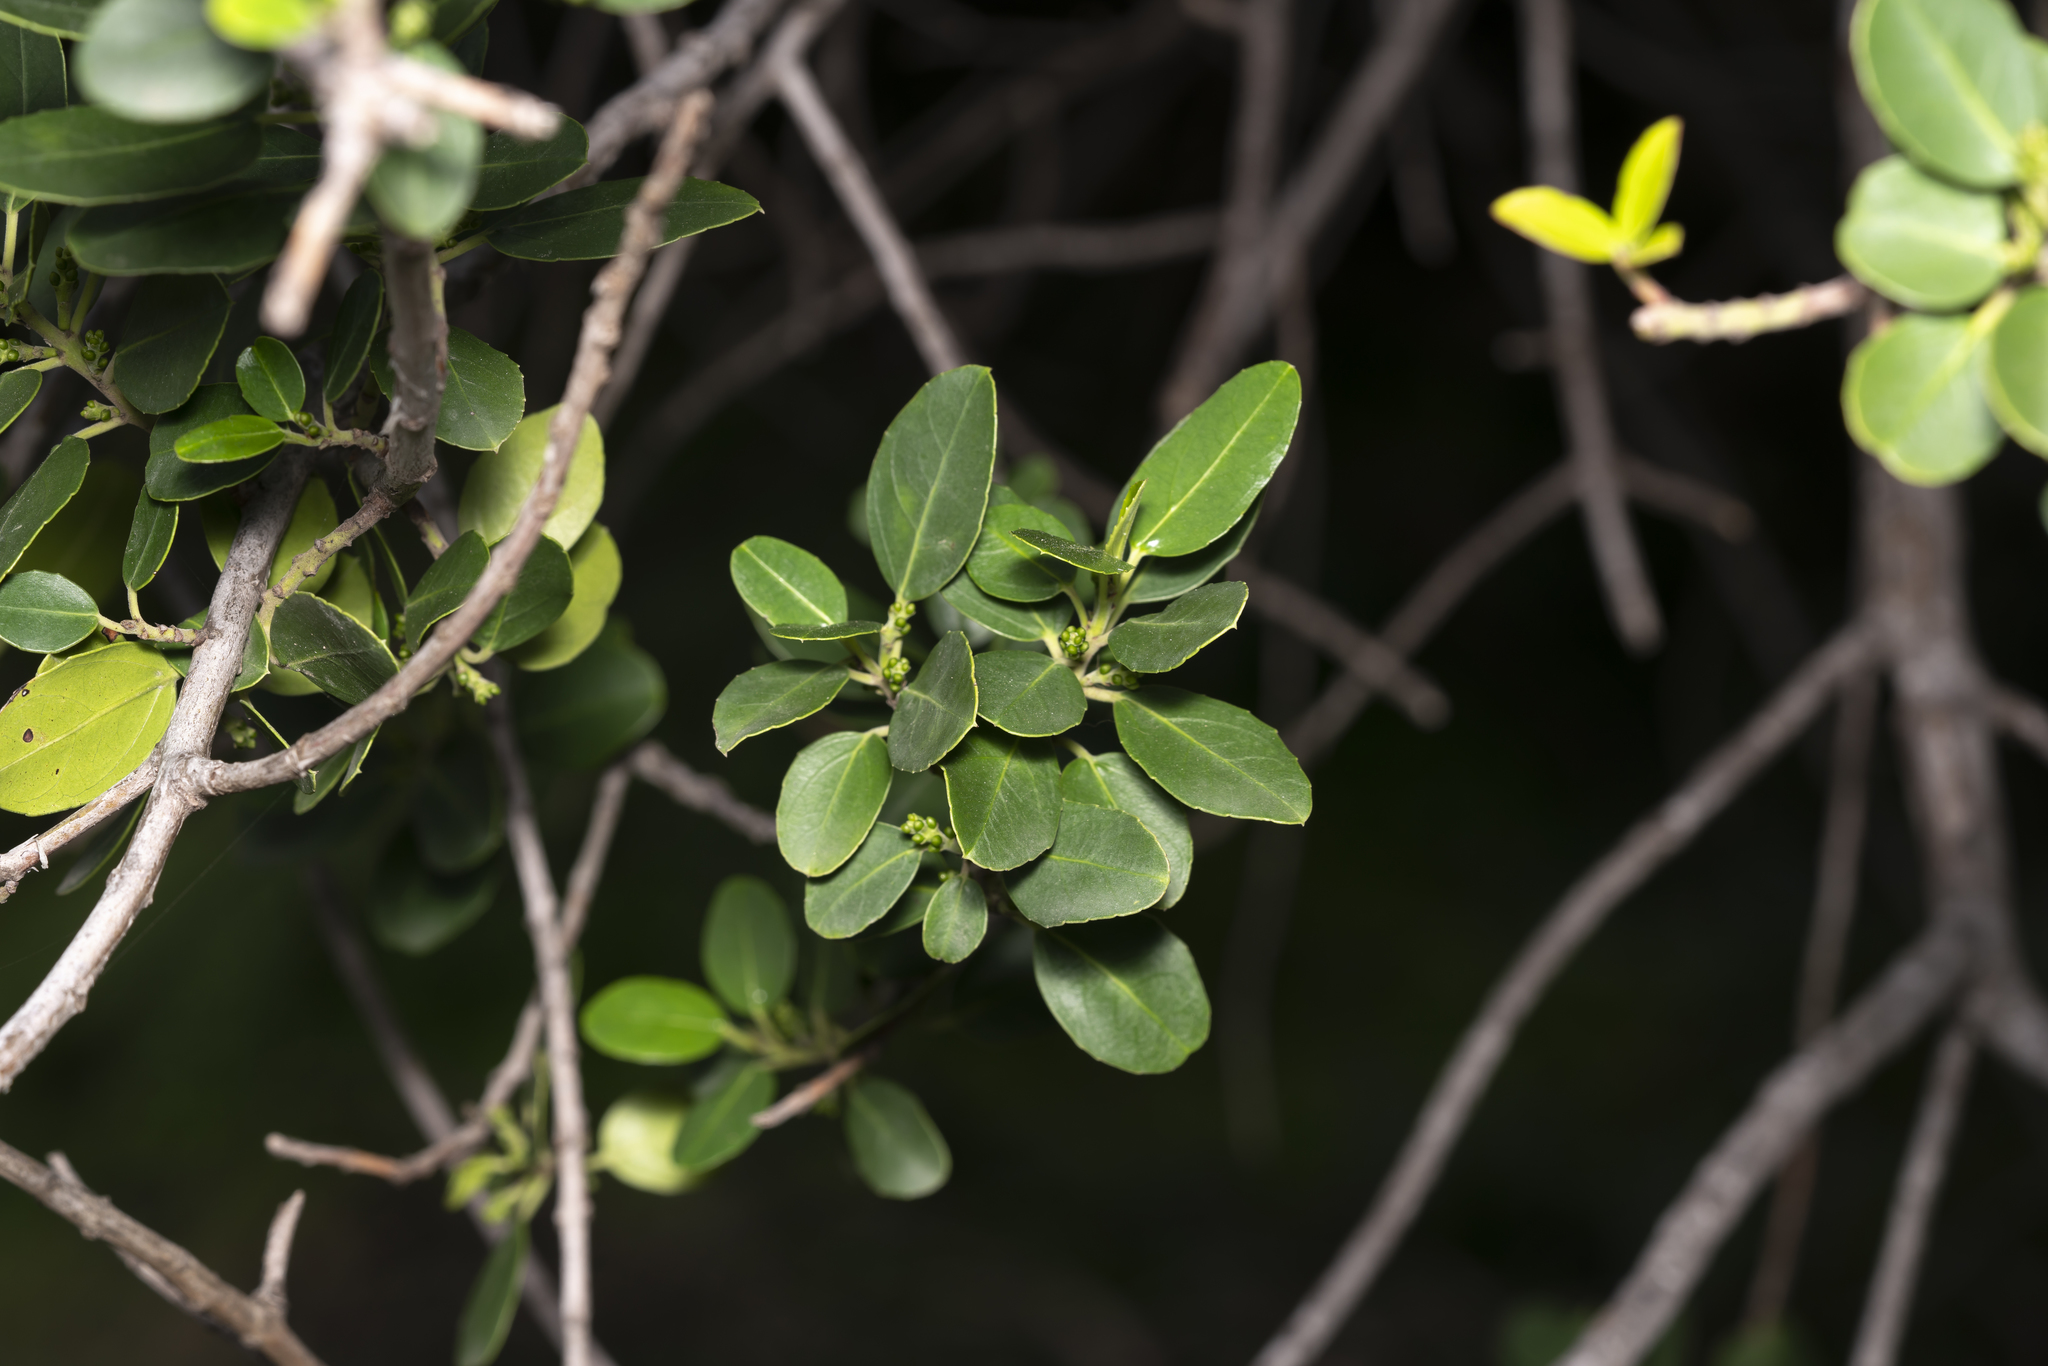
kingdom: Plantae
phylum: Tracheophyta
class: Magnoliopsida
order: Rosales
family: Rhamnaceae
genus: Rhamnus
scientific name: Rhamnus alaternus
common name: Mediterranean buckthorn
